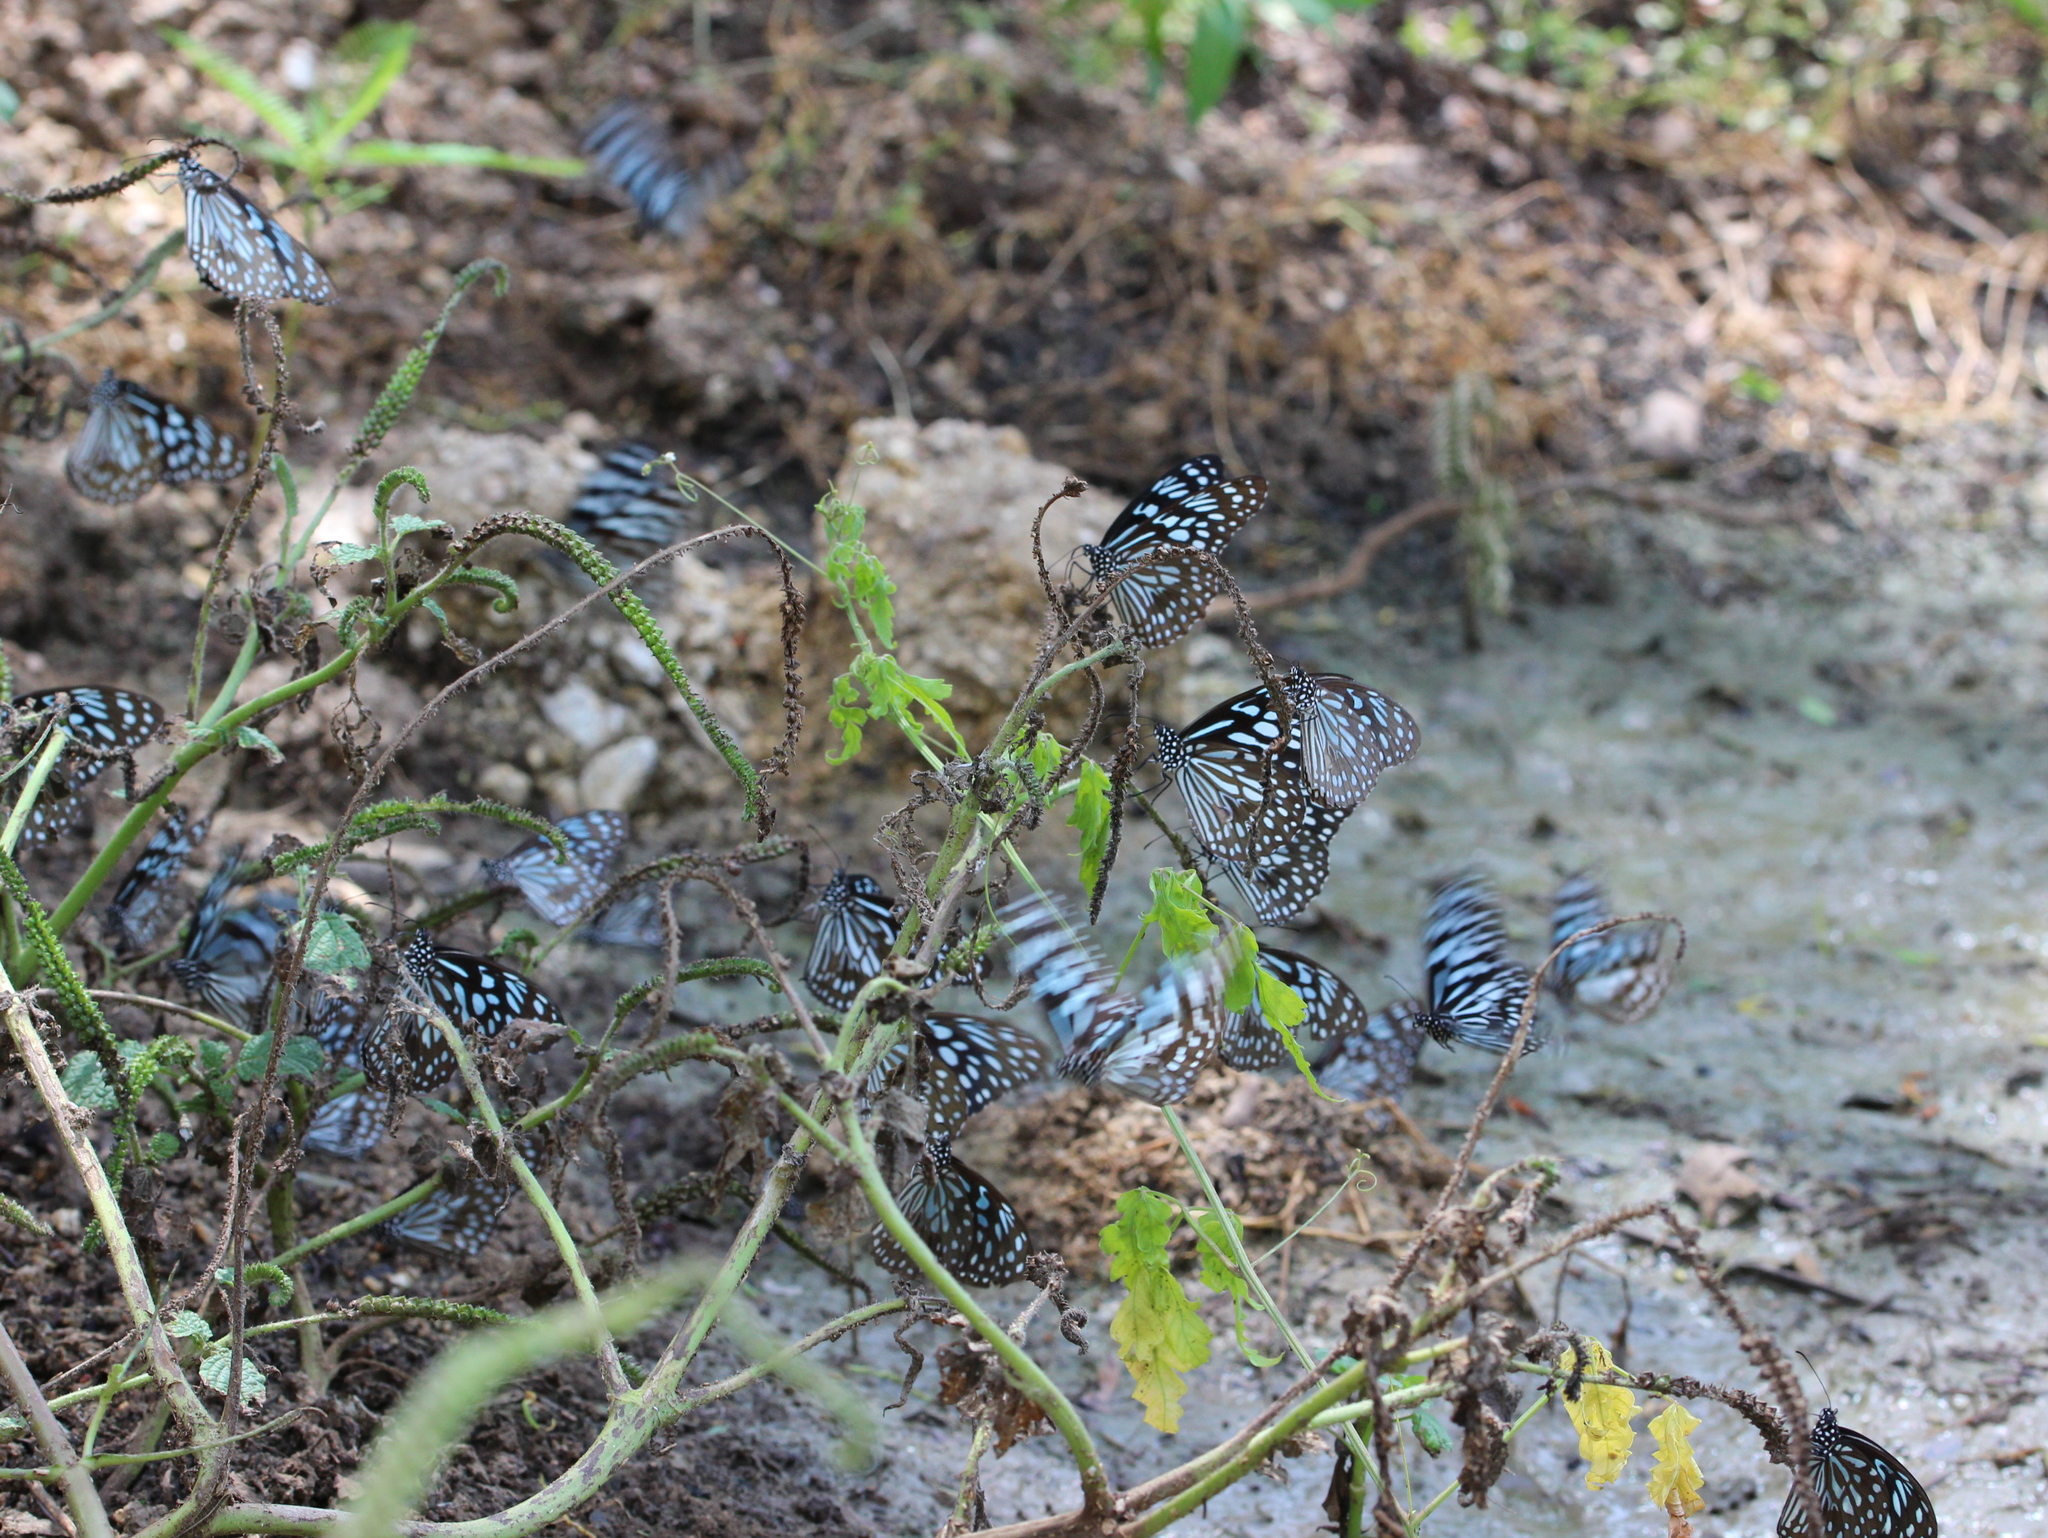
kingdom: Animalia
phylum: Arthropoda
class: Insecta
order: Lepidoptera
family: Nymphalidae
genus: Tirumala
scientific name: Tirumala limniace
